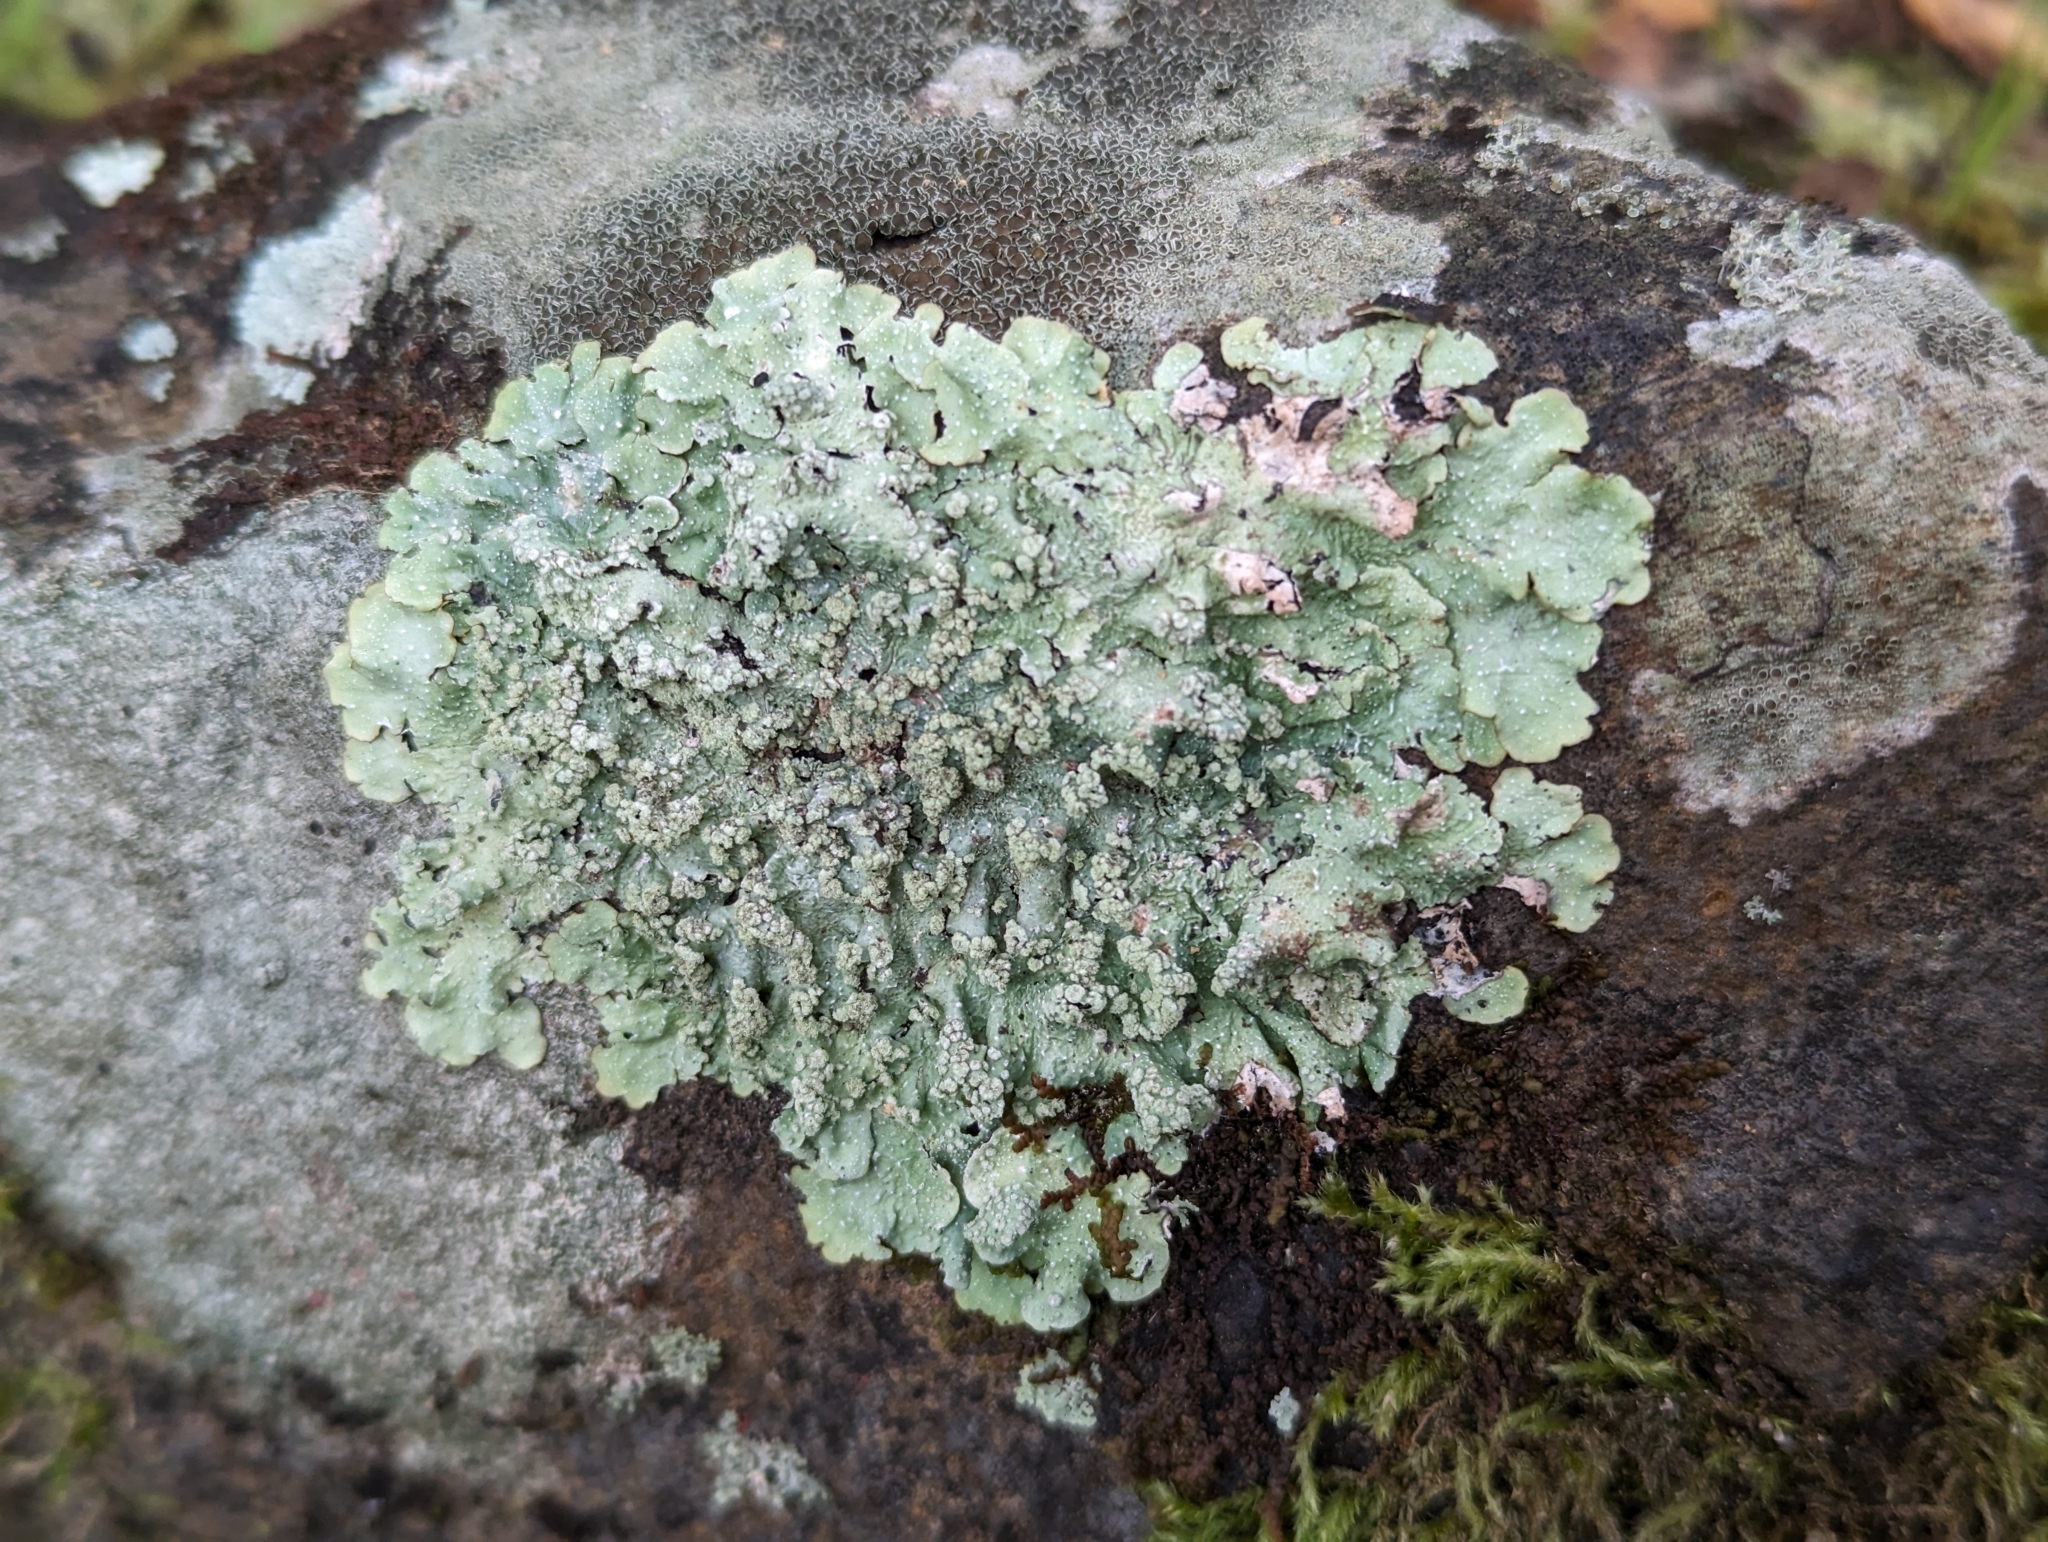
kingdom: Fungi
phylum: Ascomycota
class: Lecanoromycetes
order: Lecanorales
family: Parmeliaceae
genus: Punctelia
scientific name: Punctelia borreri
